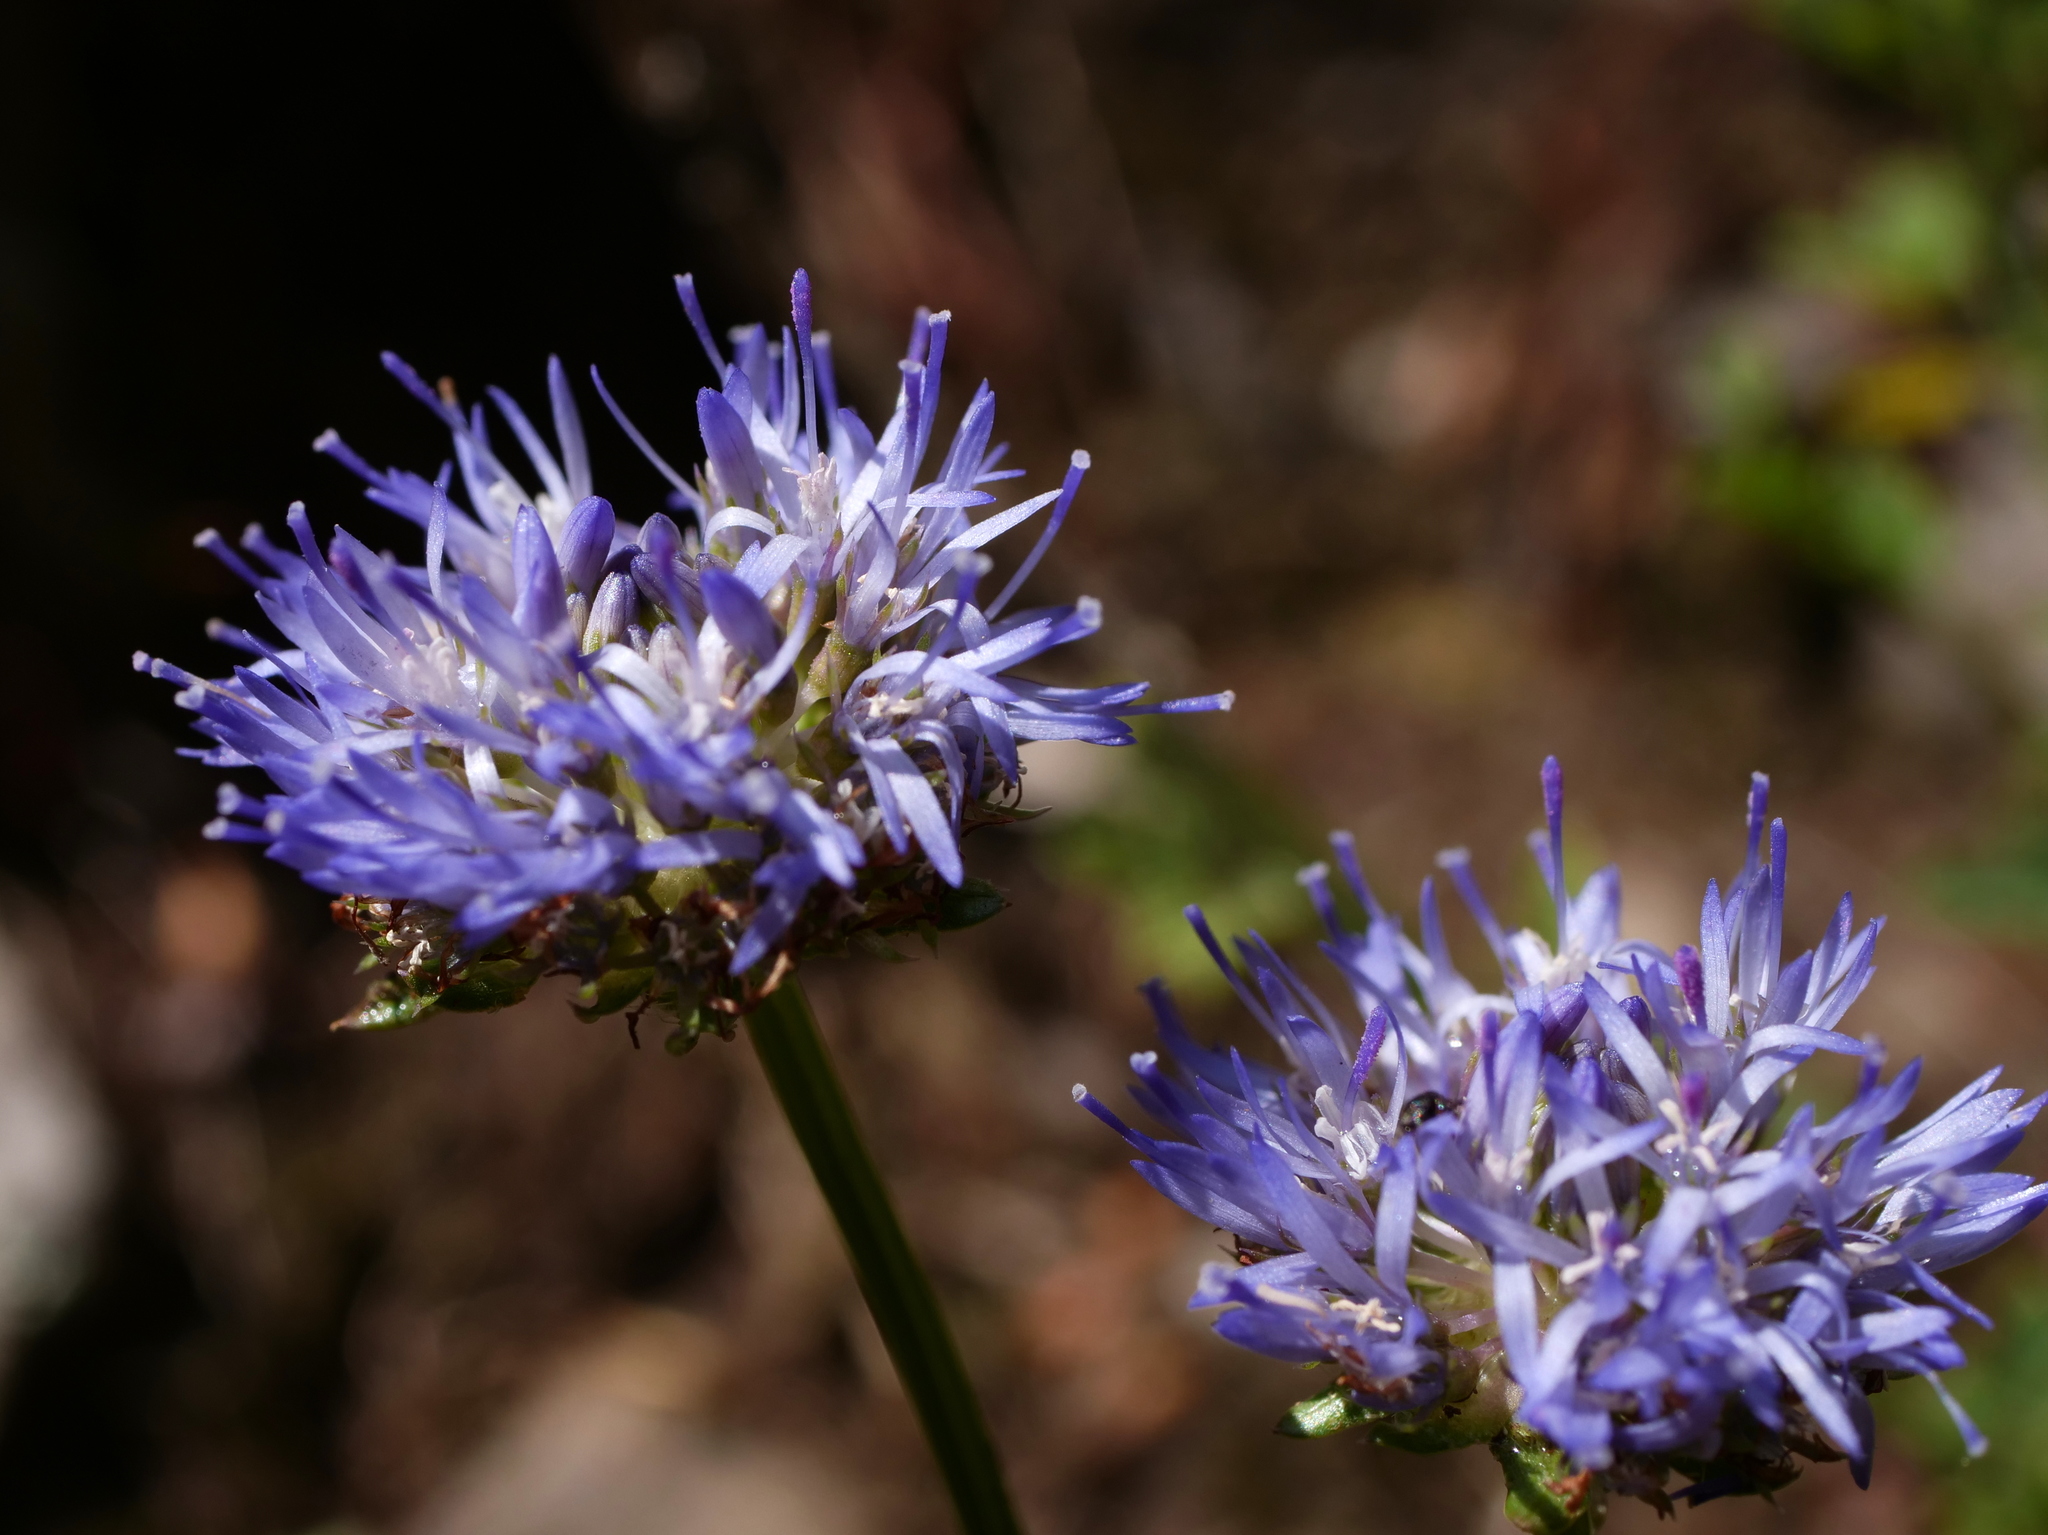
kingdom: Plantae
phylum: Tracheophyta
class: Magnoliopsida
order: Asterales
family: Campanulaceae
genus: Jasione
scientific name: Jasione montana
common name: Sheep's-bit
